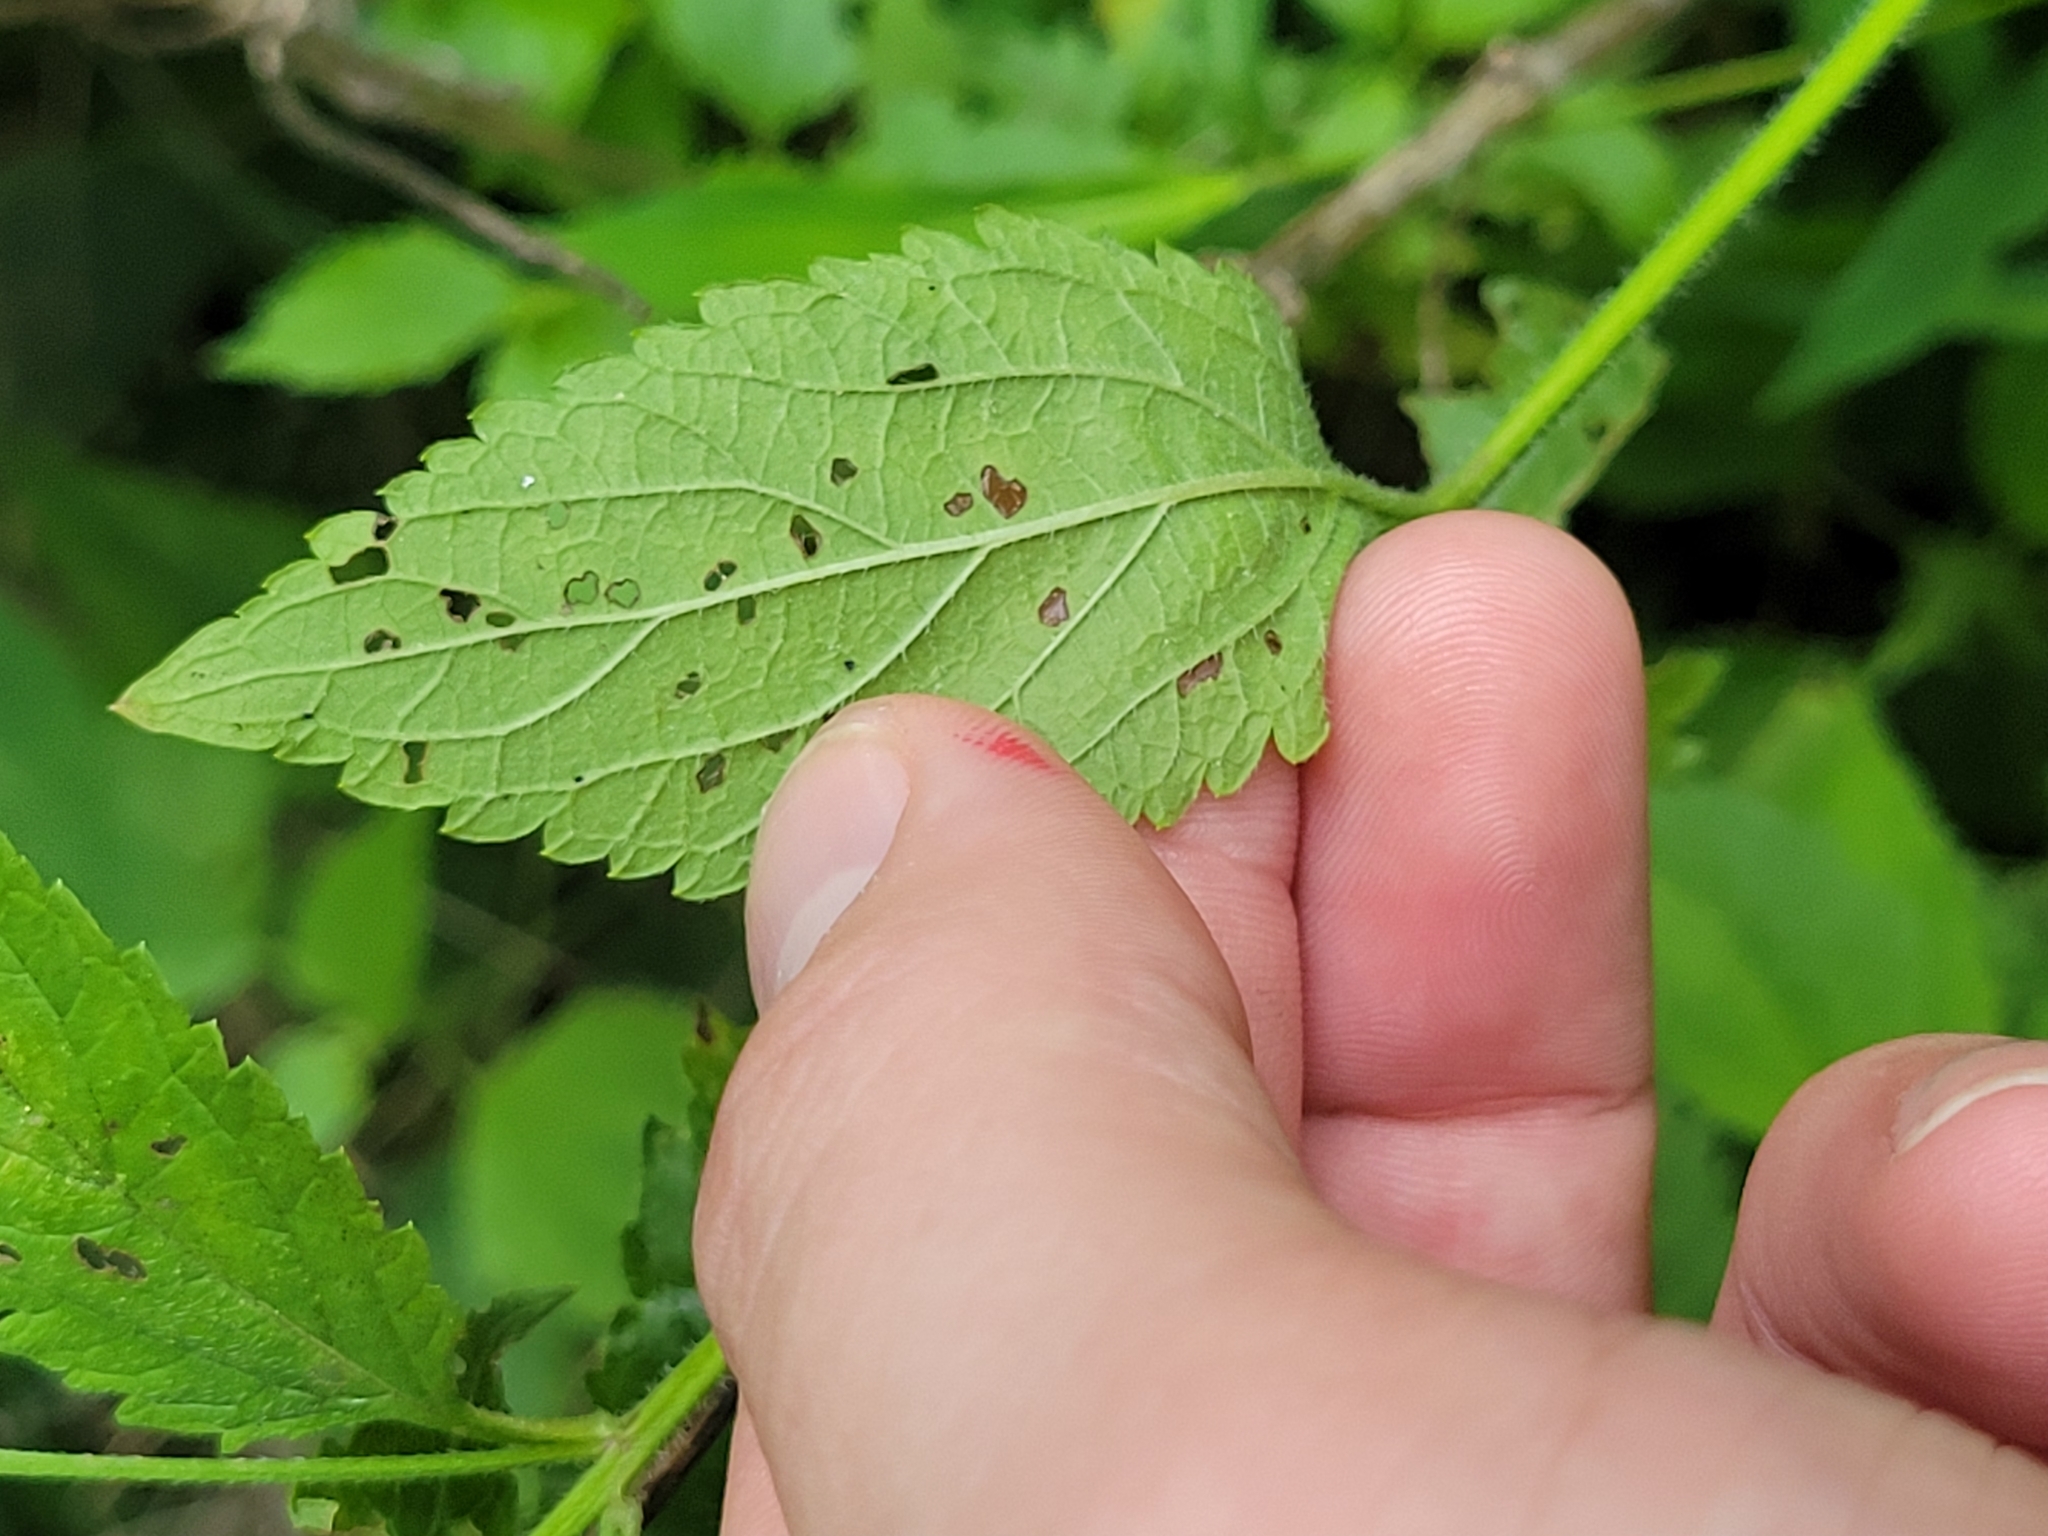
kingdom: Plantae
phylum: Tracheophyta
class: Magnoliopsida
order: Lamiales
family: Verbenaceae
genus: Verbena
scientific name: Verbena urticifolia
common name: Nettle-leaved vervain
